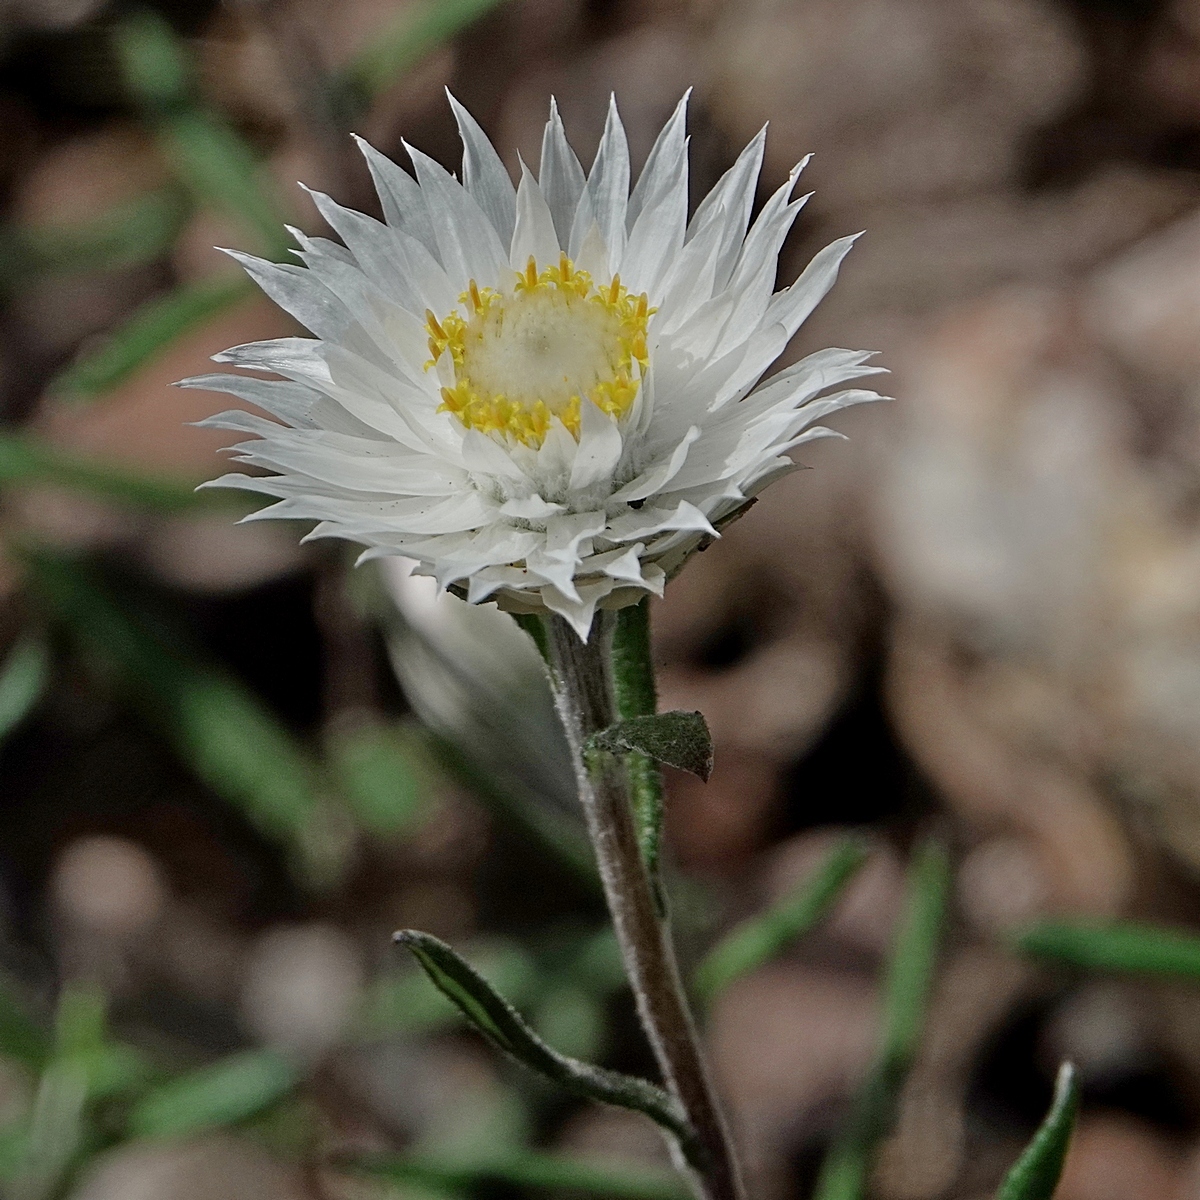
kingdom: Plantae
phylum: Tracheophyta
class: Magnoliopsida
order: Asterales
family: Asteraceae
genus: Helichrysum
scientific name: Helichrysum leucopsideum
